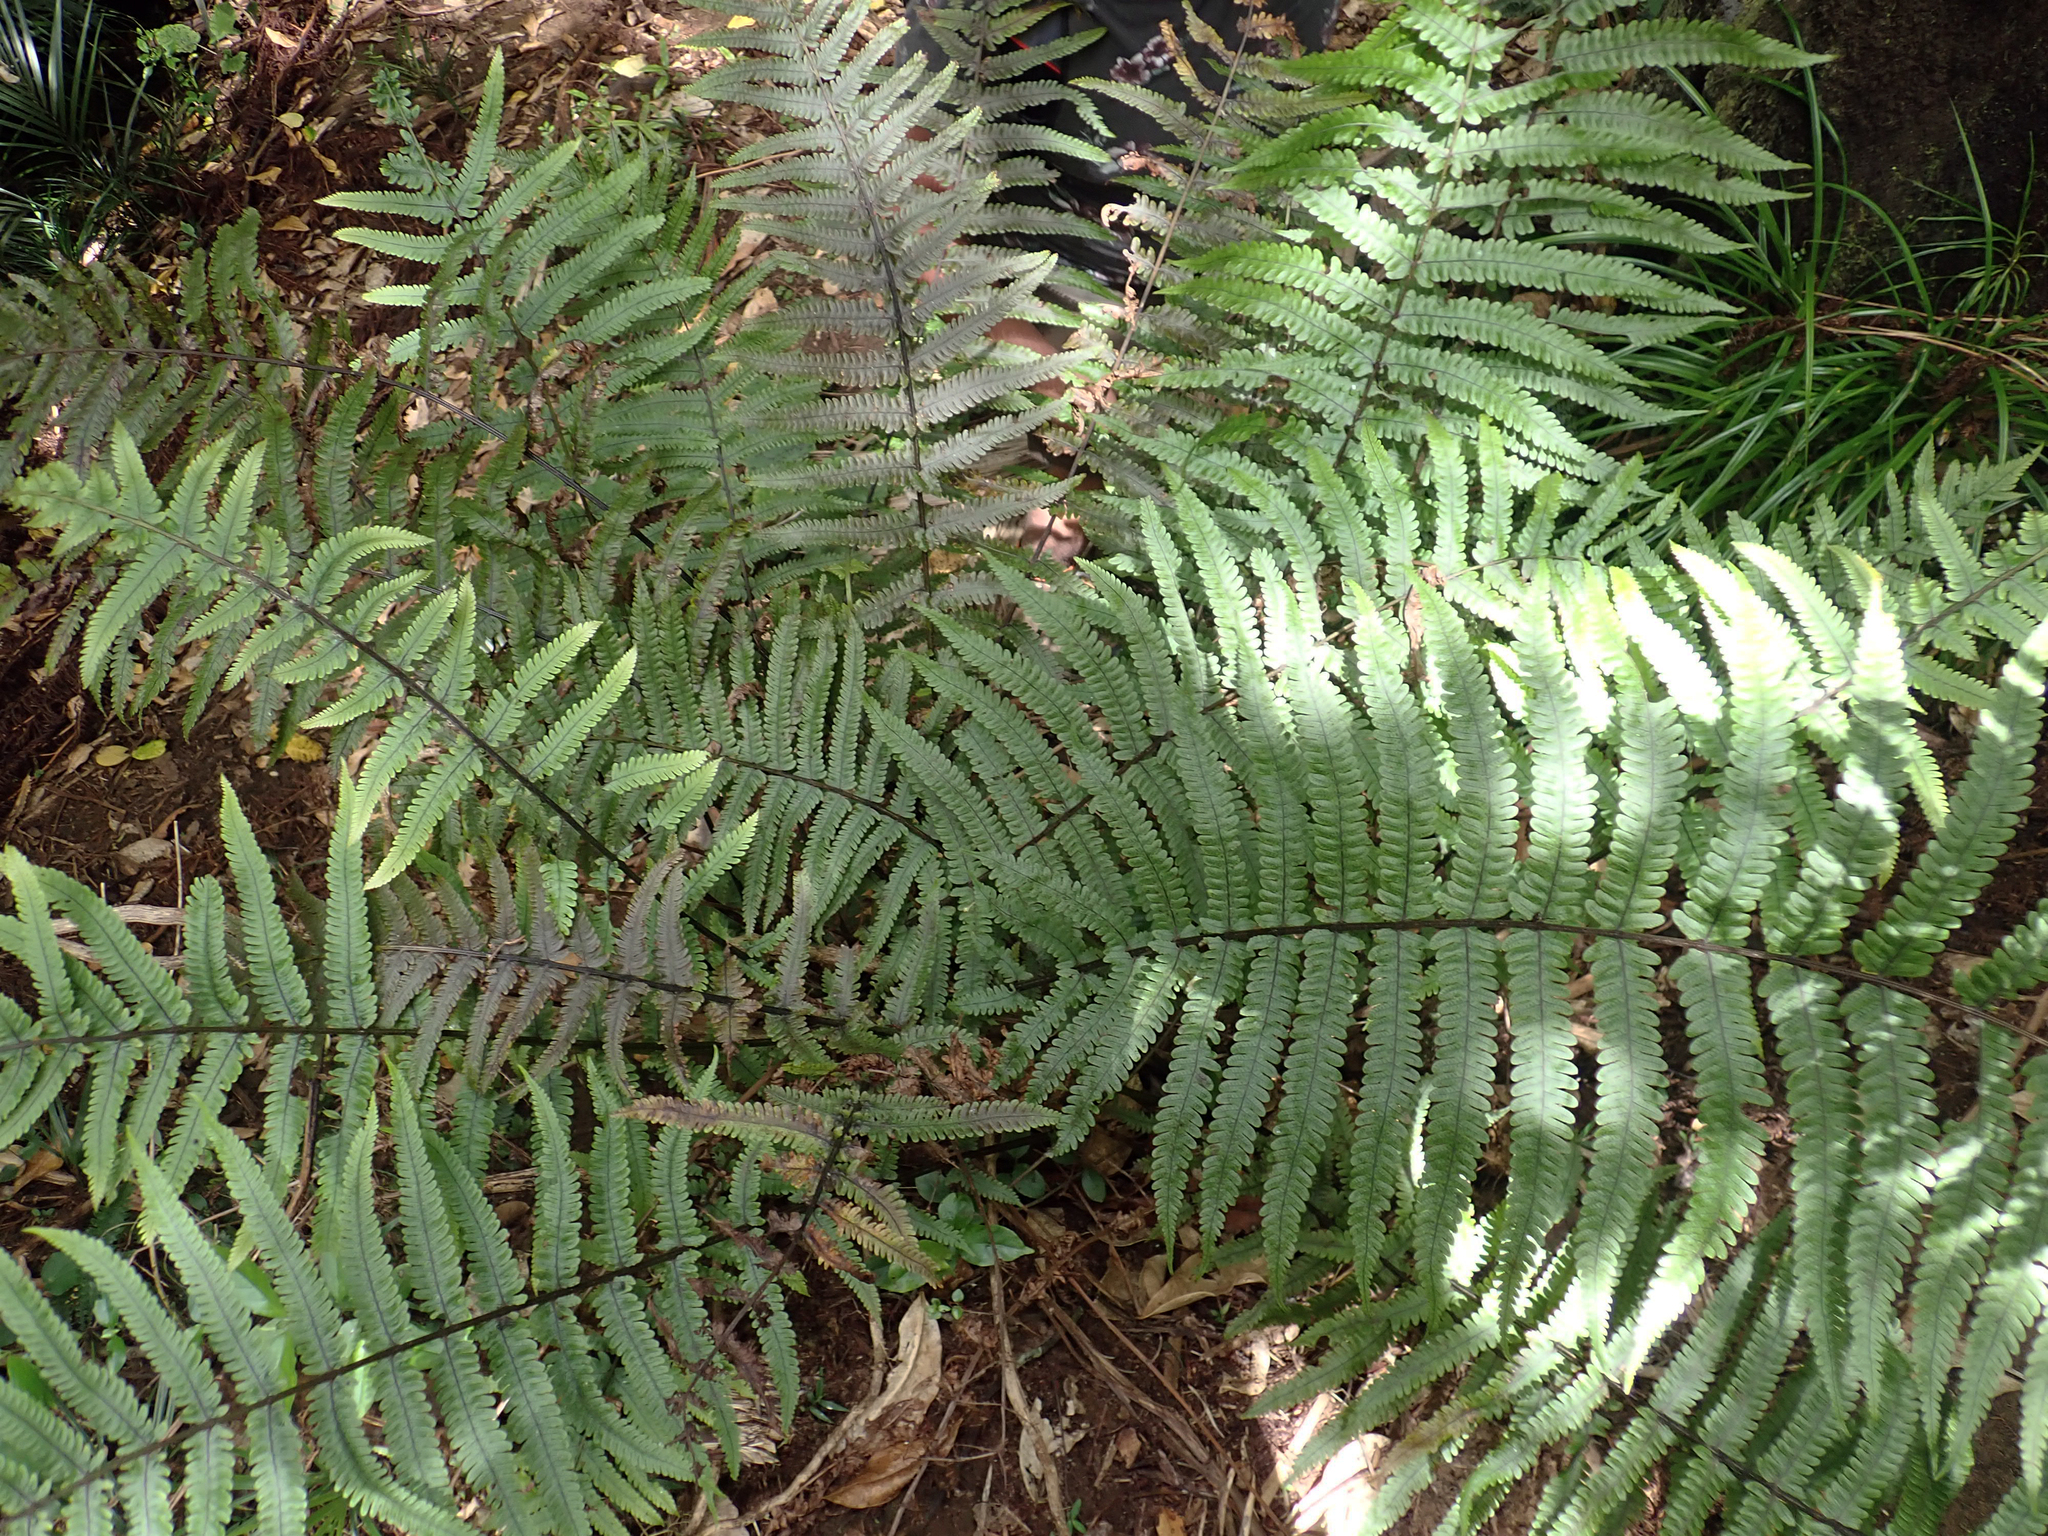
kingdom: Plantae
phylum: Tracheophyta
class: Polypodiopsida
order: Polypodiales
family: Thelypteridaceae
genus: Pakau
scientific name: Pakau pennigera
